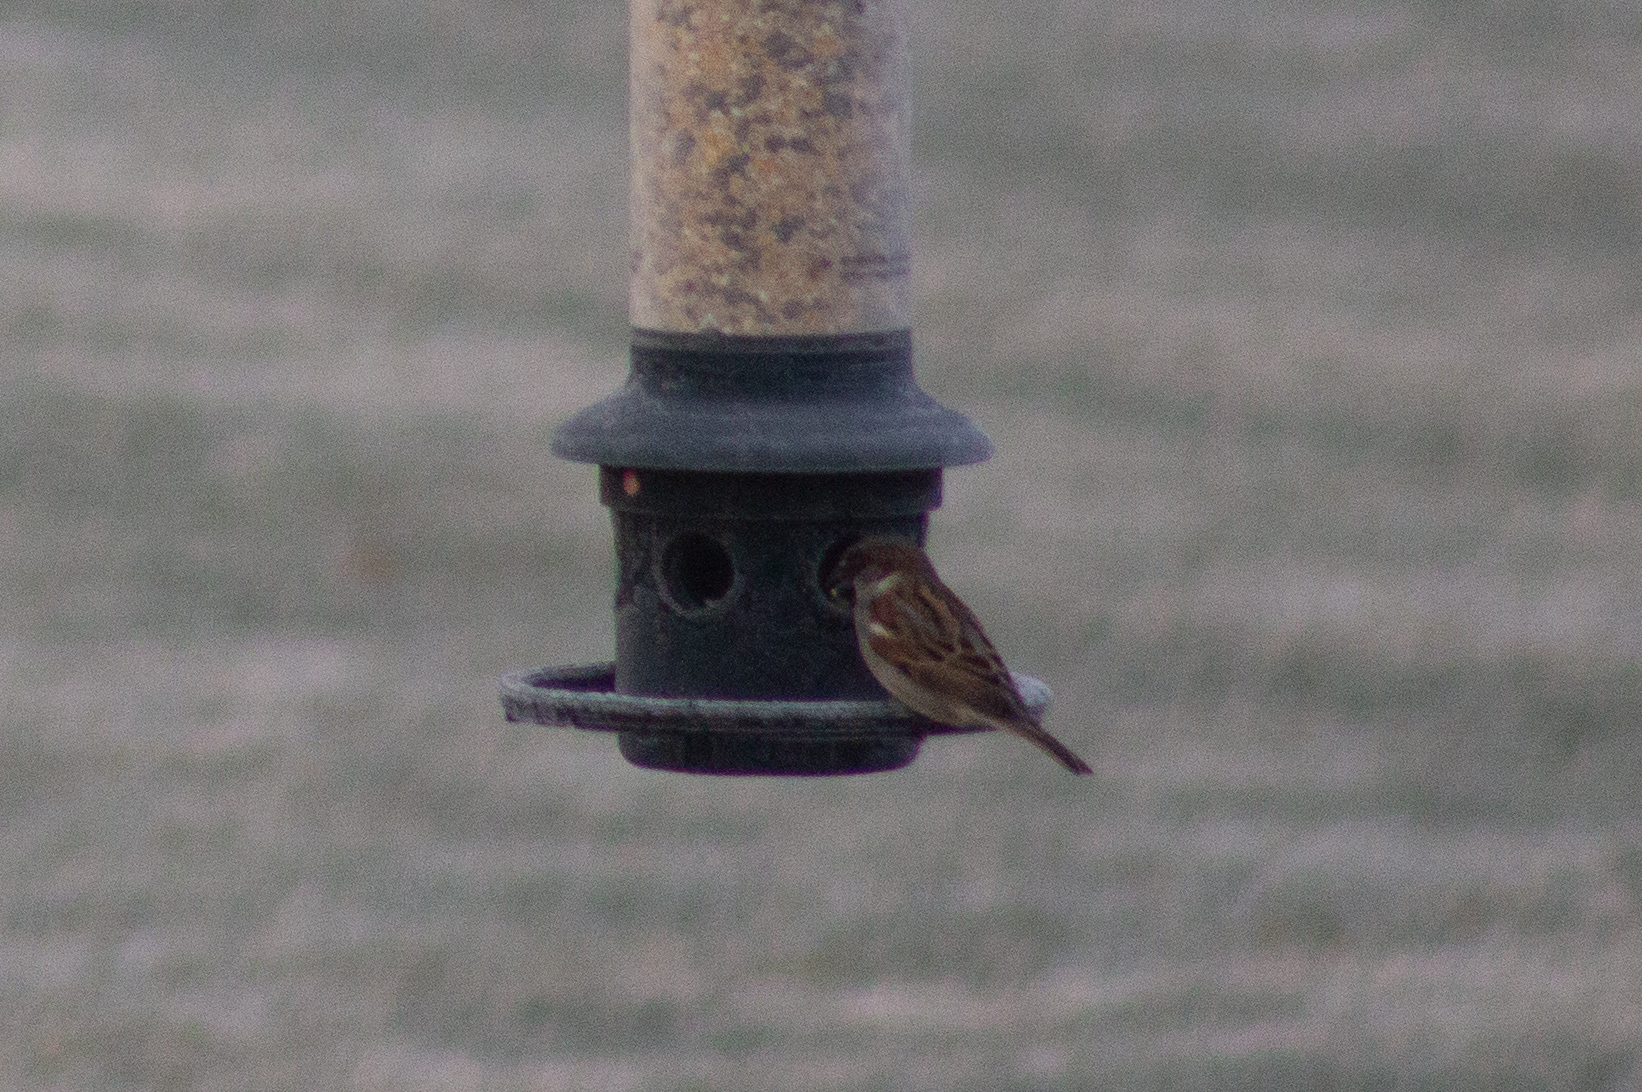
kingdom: Animalia
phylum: Chordata
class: Aves
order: Passeriformes
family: Passeridae
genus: Passer
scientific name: Passer domesticus
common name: House sparrow
